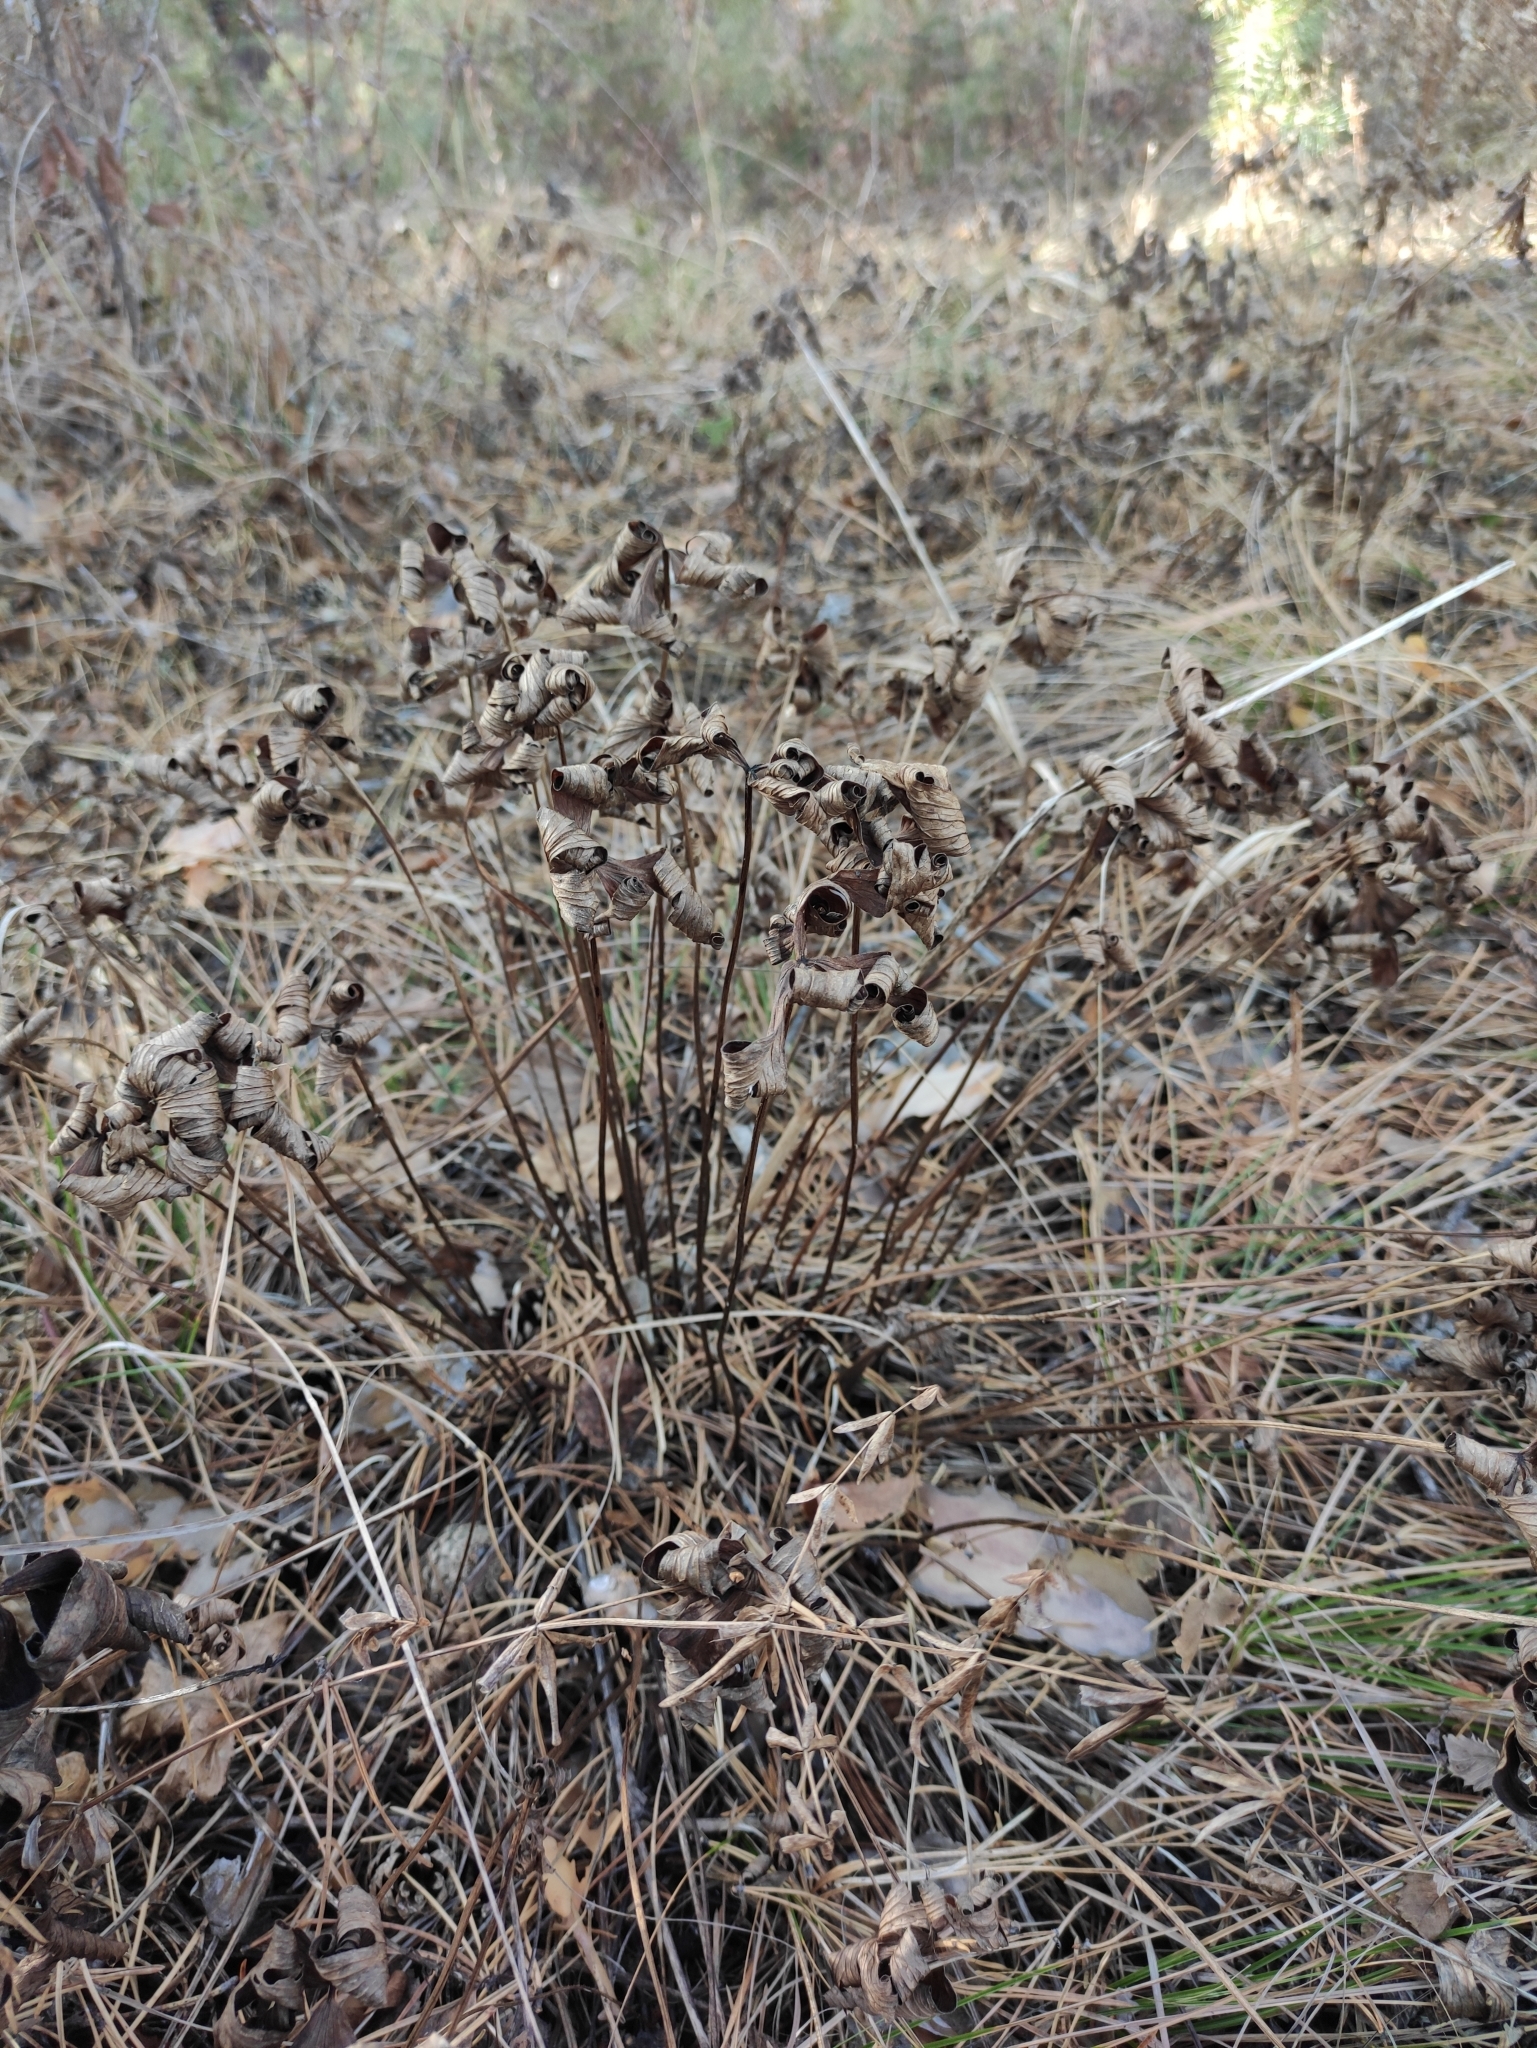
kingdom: Plantae
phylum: Tracheophyta
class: Magnoliopsida
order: Ranunculales
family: Ranunculaceae
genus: Pulsatilla
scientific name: Pulsatilla patens
